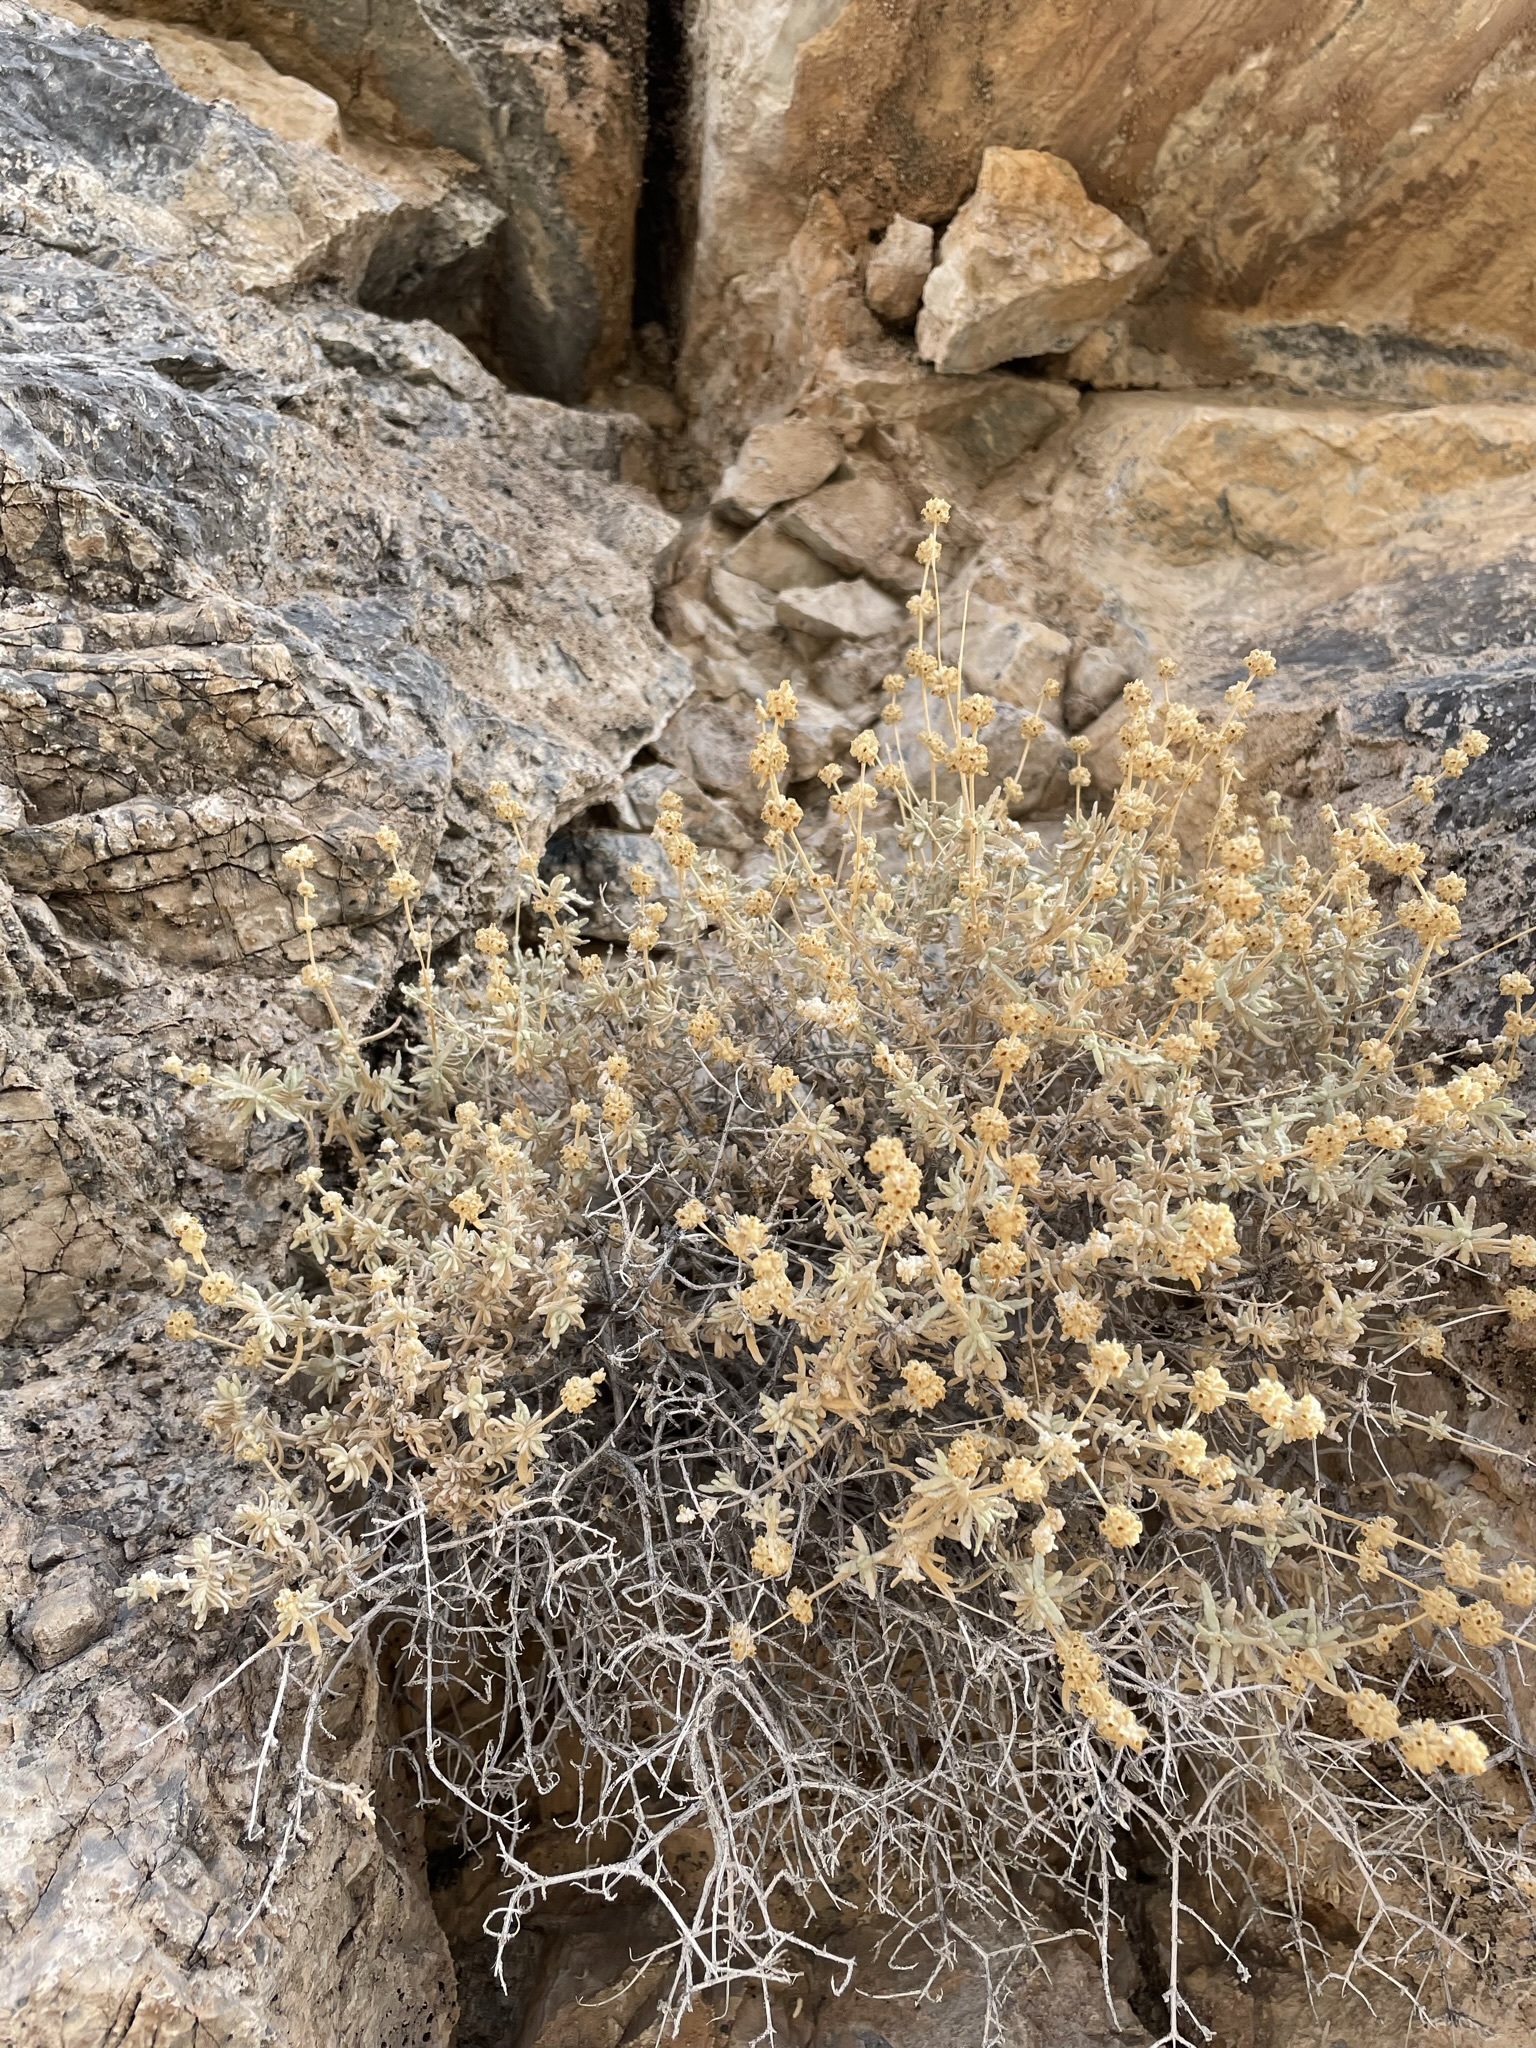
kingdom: Plantae
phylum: Tracheophyta
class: Magnoliopsida
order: Lamiales
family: Scrophulariaceae
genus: Buddleja
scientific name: Buddleja utahensis
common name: Utah butterfly-bush
